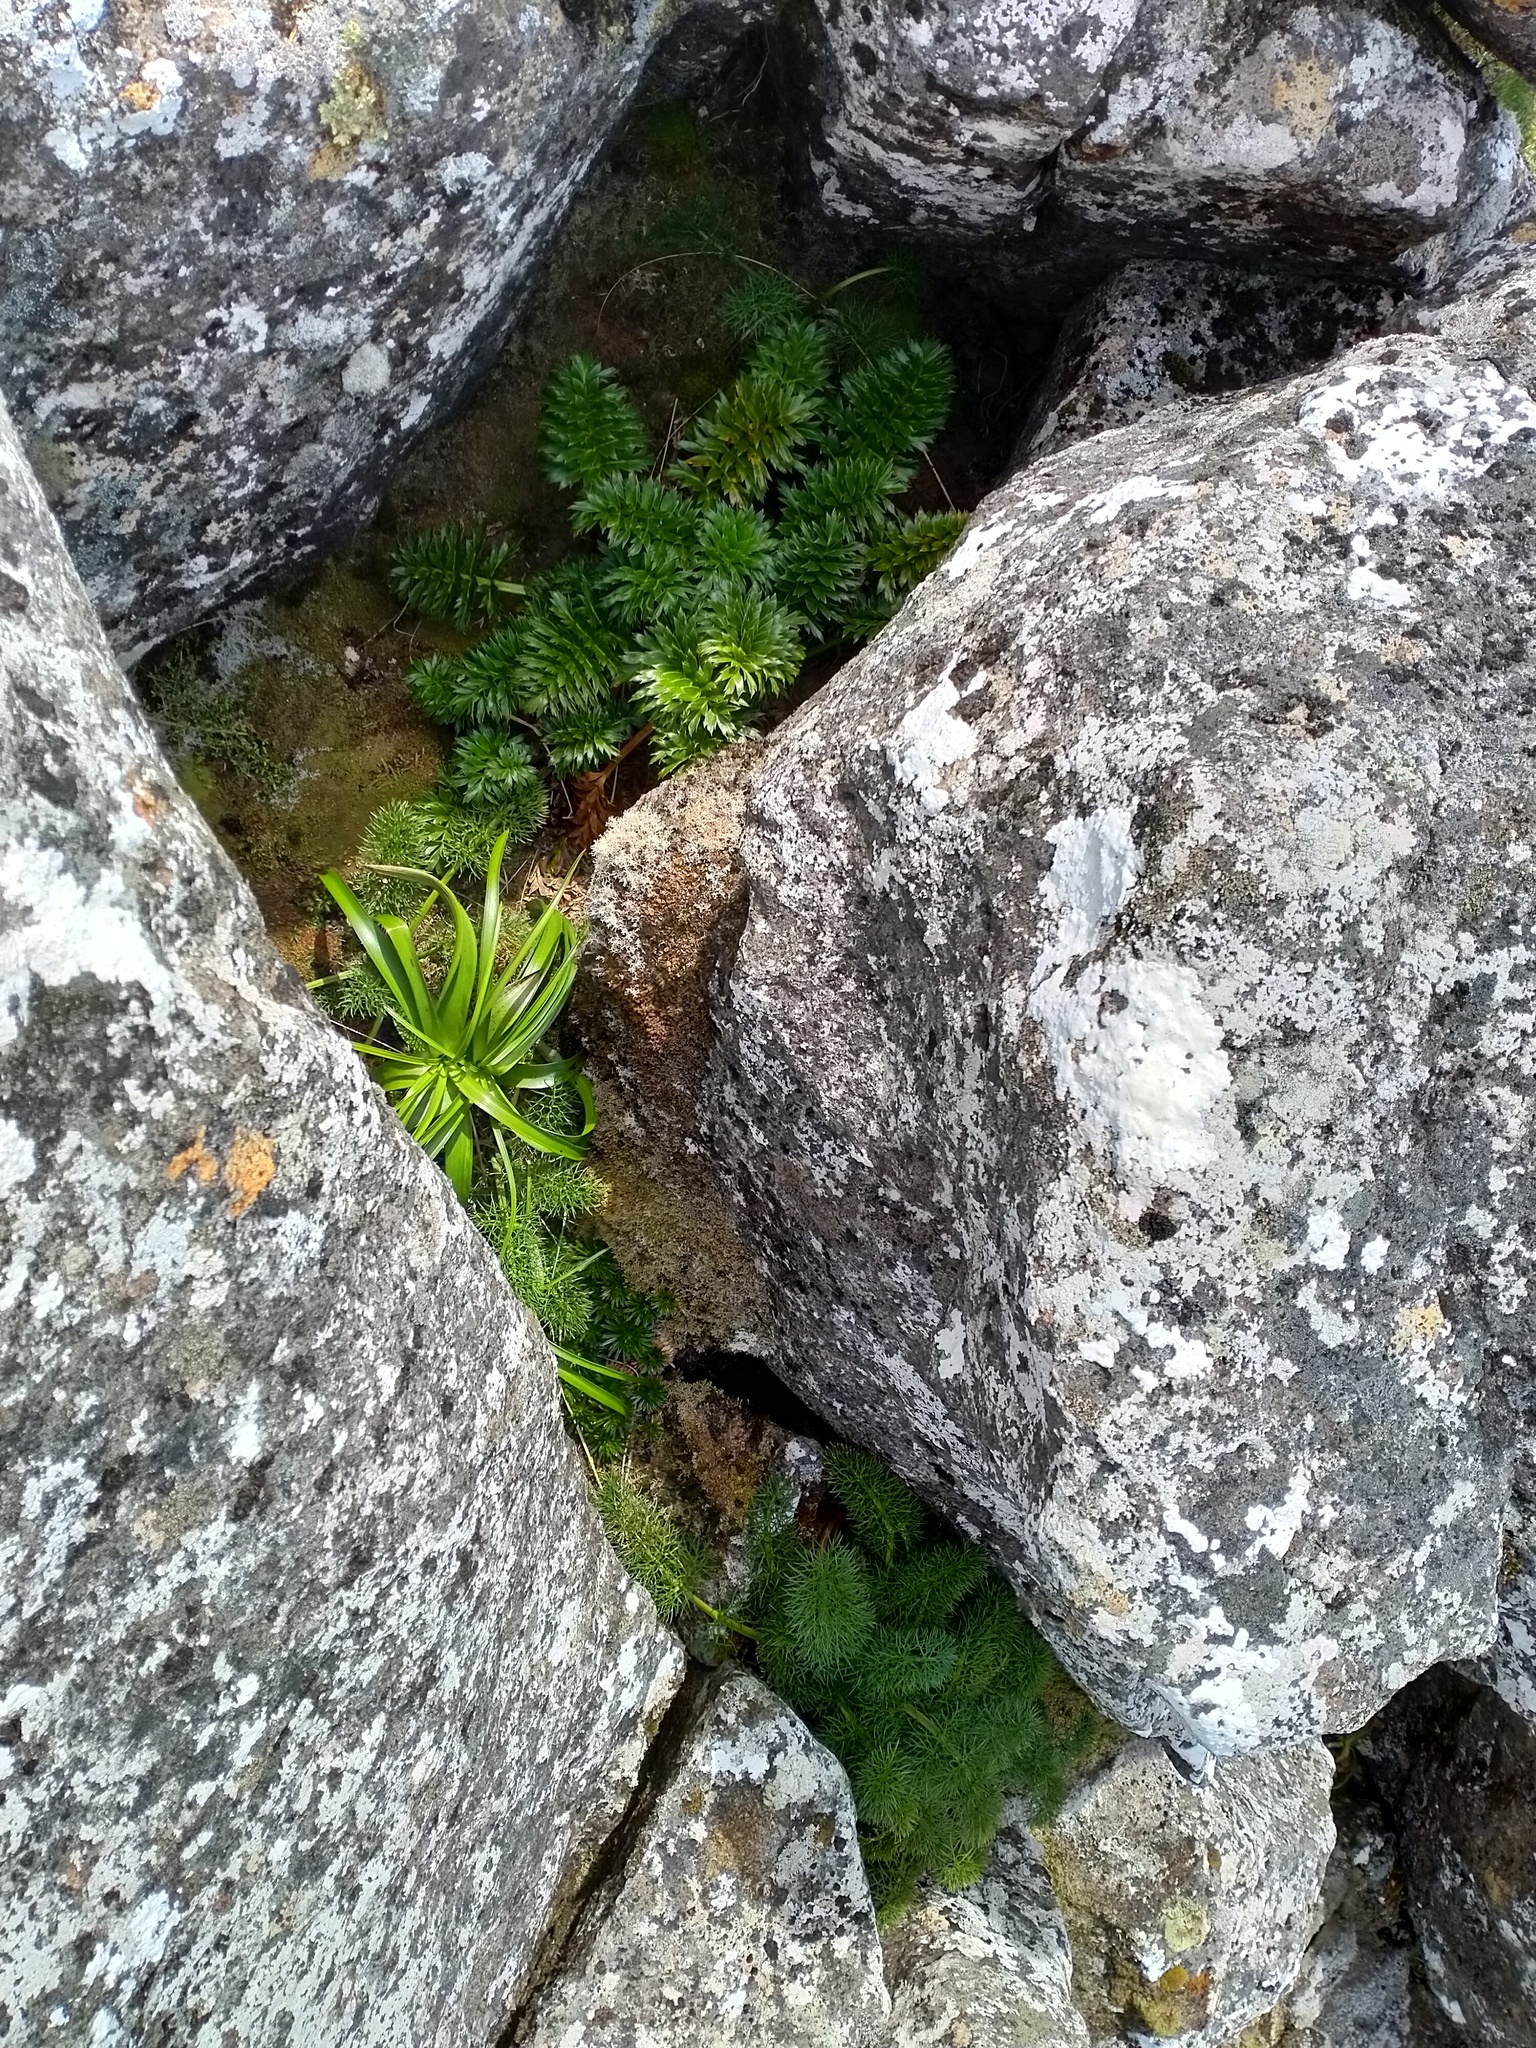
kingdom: Plantae
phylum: Tracheophyta
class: Magnoliopsida
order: Apiales
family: Apiaceae
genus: Anisotome
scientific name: Anisotome latifolia
